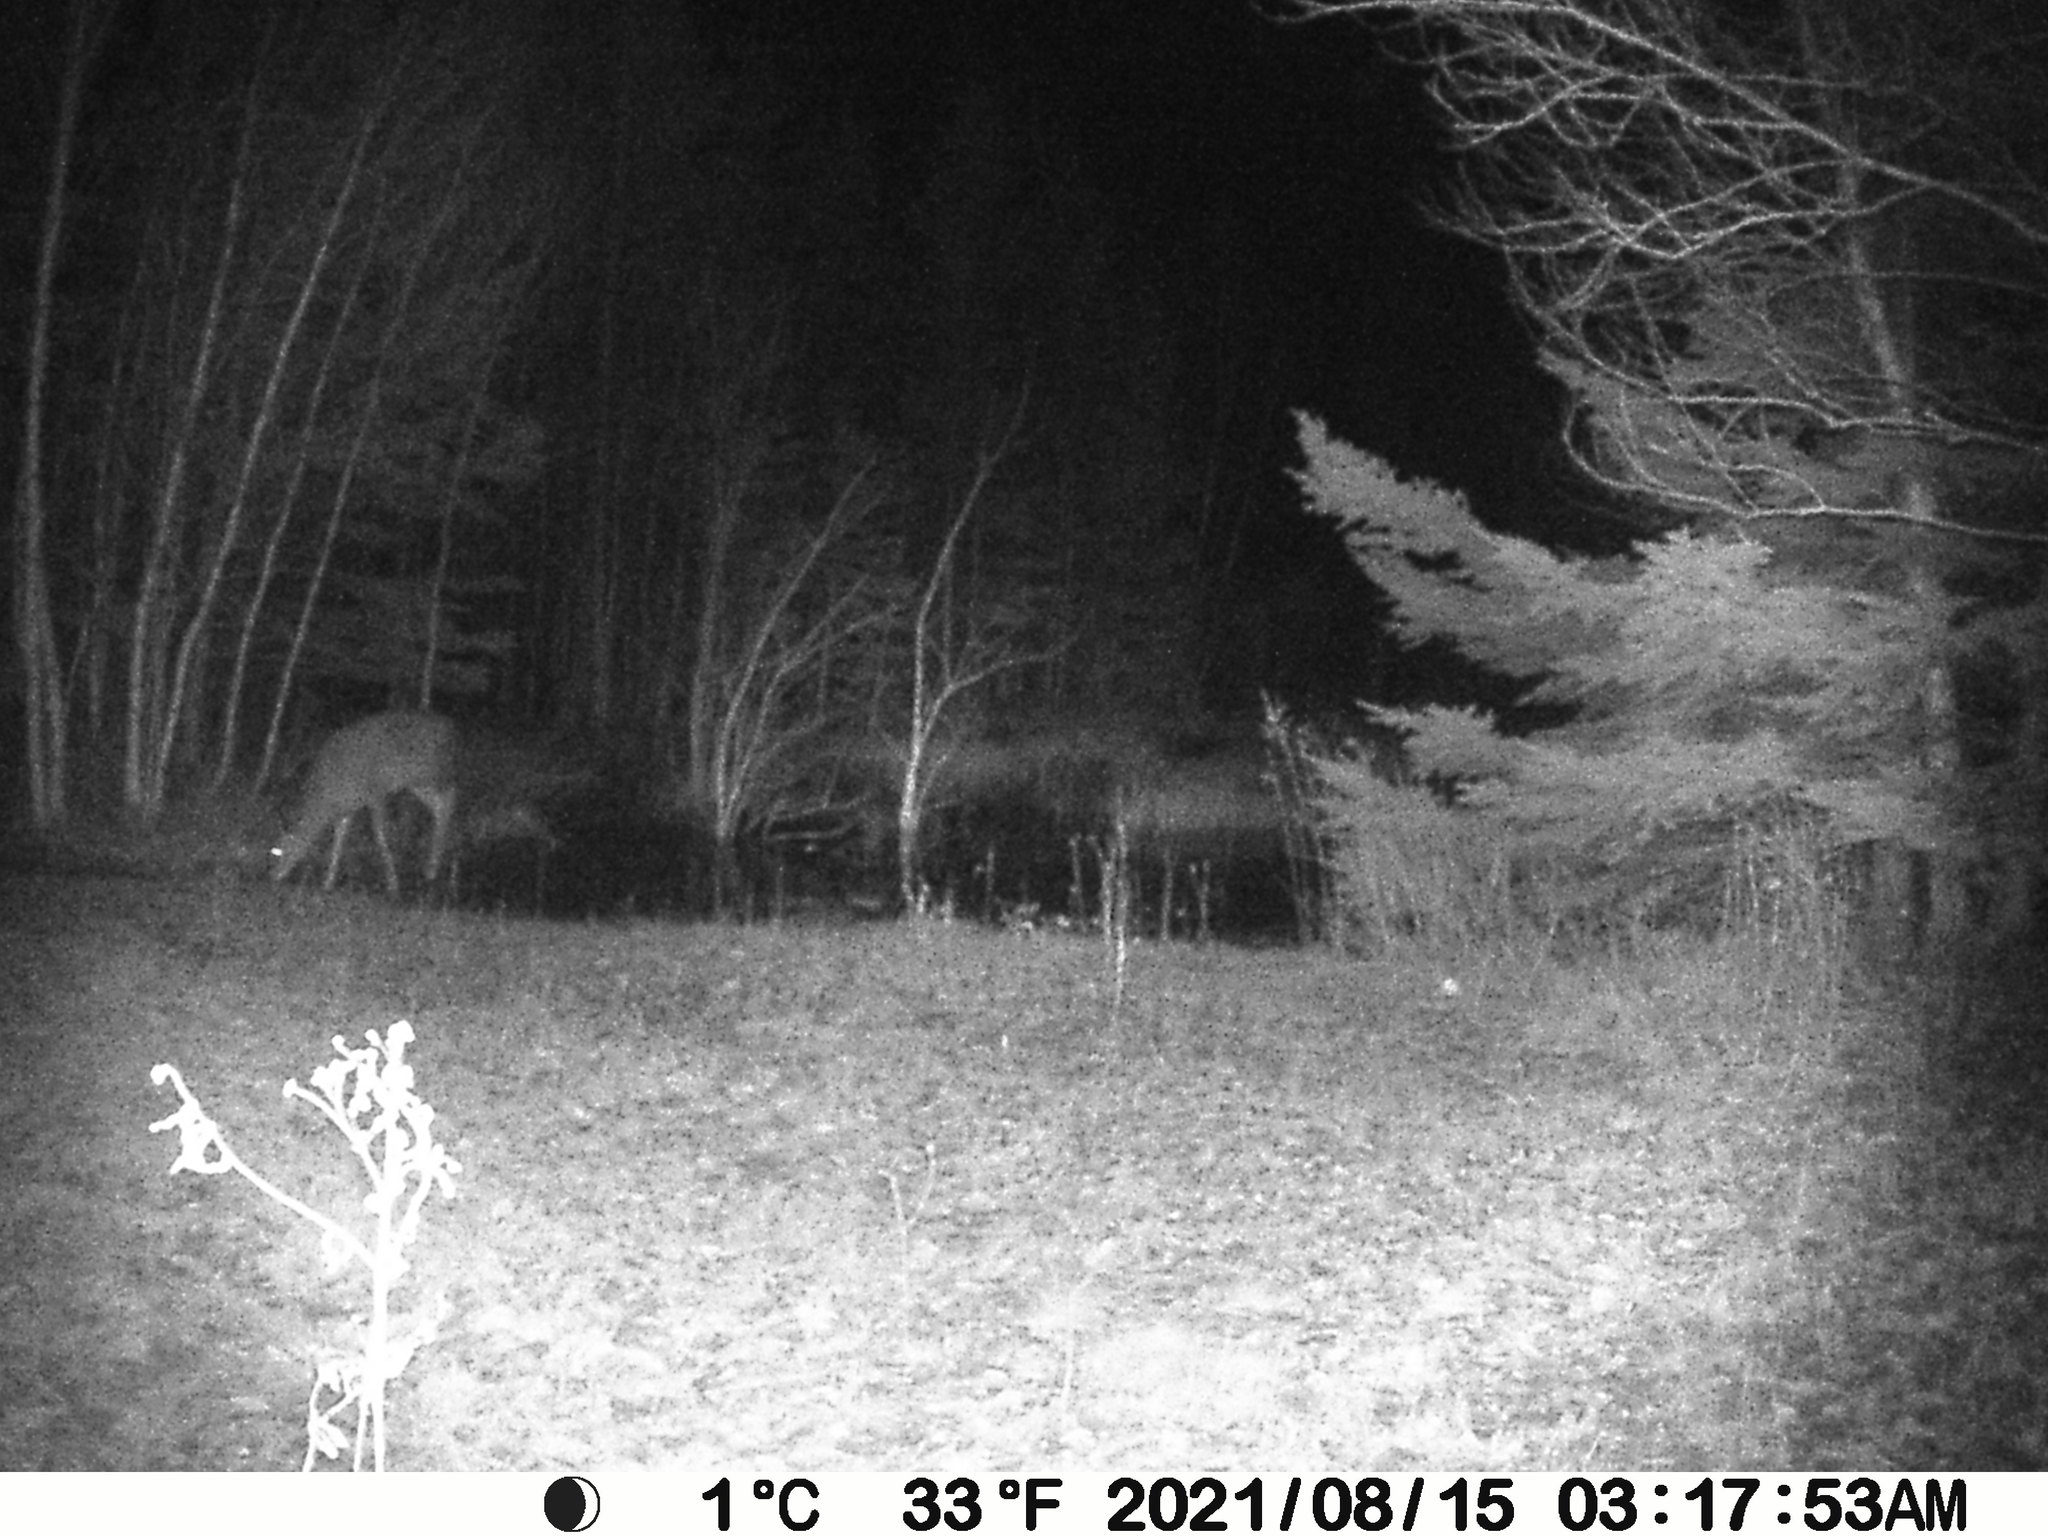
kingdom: Animalia
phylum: Chordata
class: Mammalia
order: Artiodactyla
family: Cervidae
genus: Odocoileus
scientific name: Odocoileus virginianus
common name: White-tailed deer
